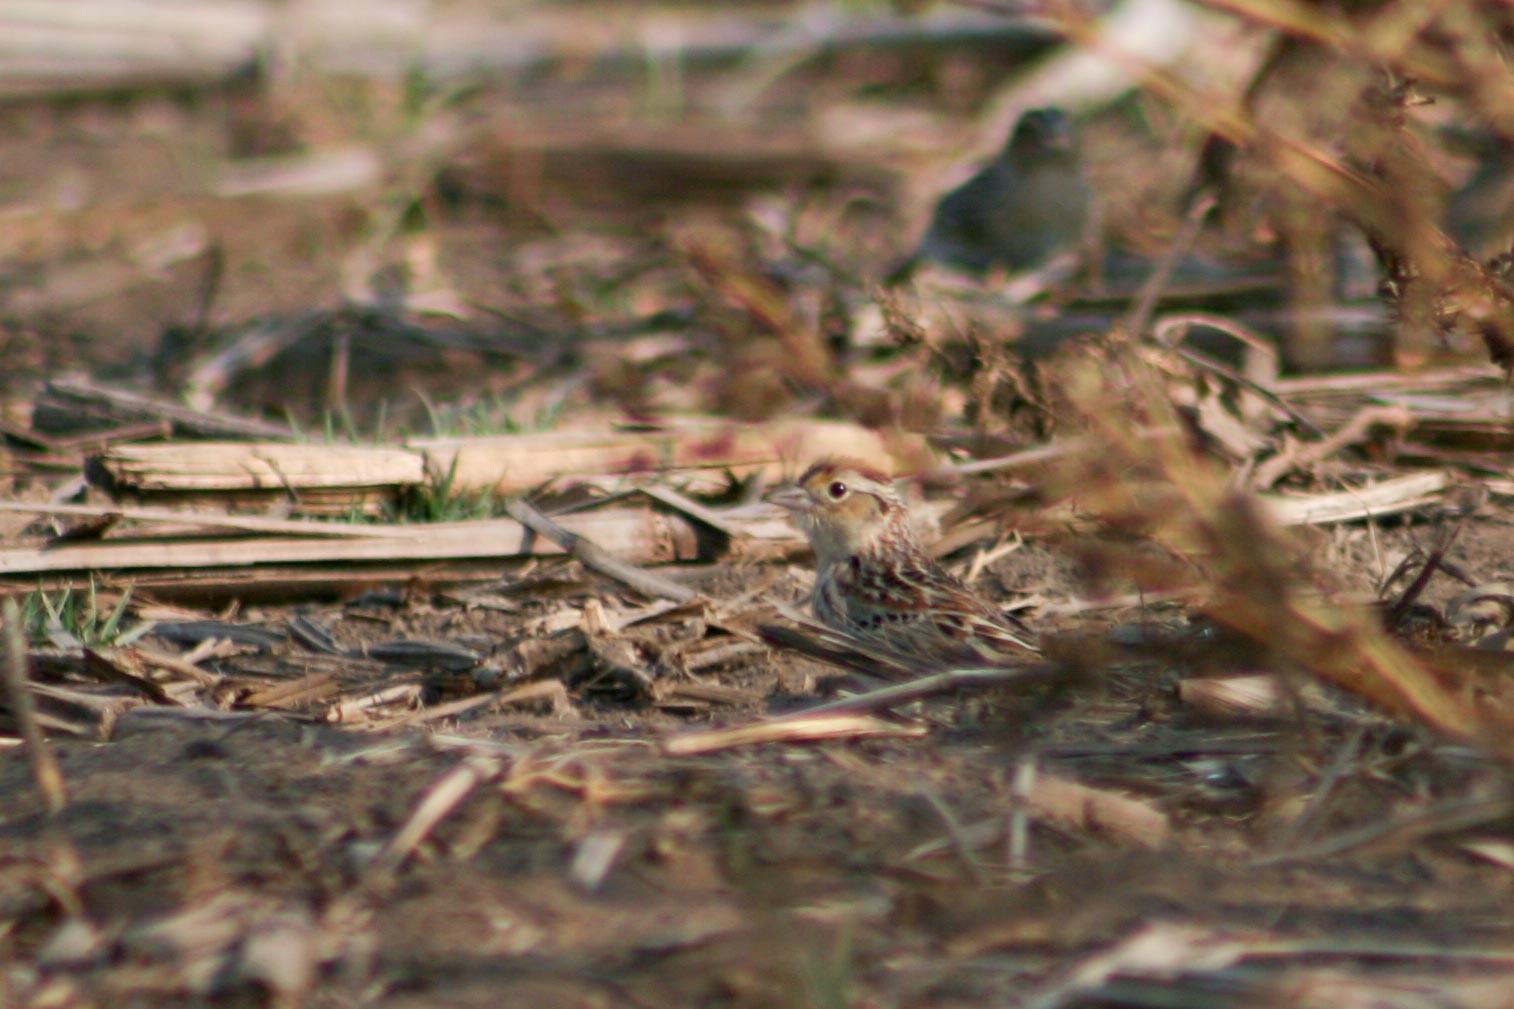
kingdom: Animalia
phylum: Chordata
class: Aves
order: Passeriformes
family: Passerellidae
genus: Ammodramus
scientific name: Ammodramus savannarum
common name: Grasshopper sparrow
